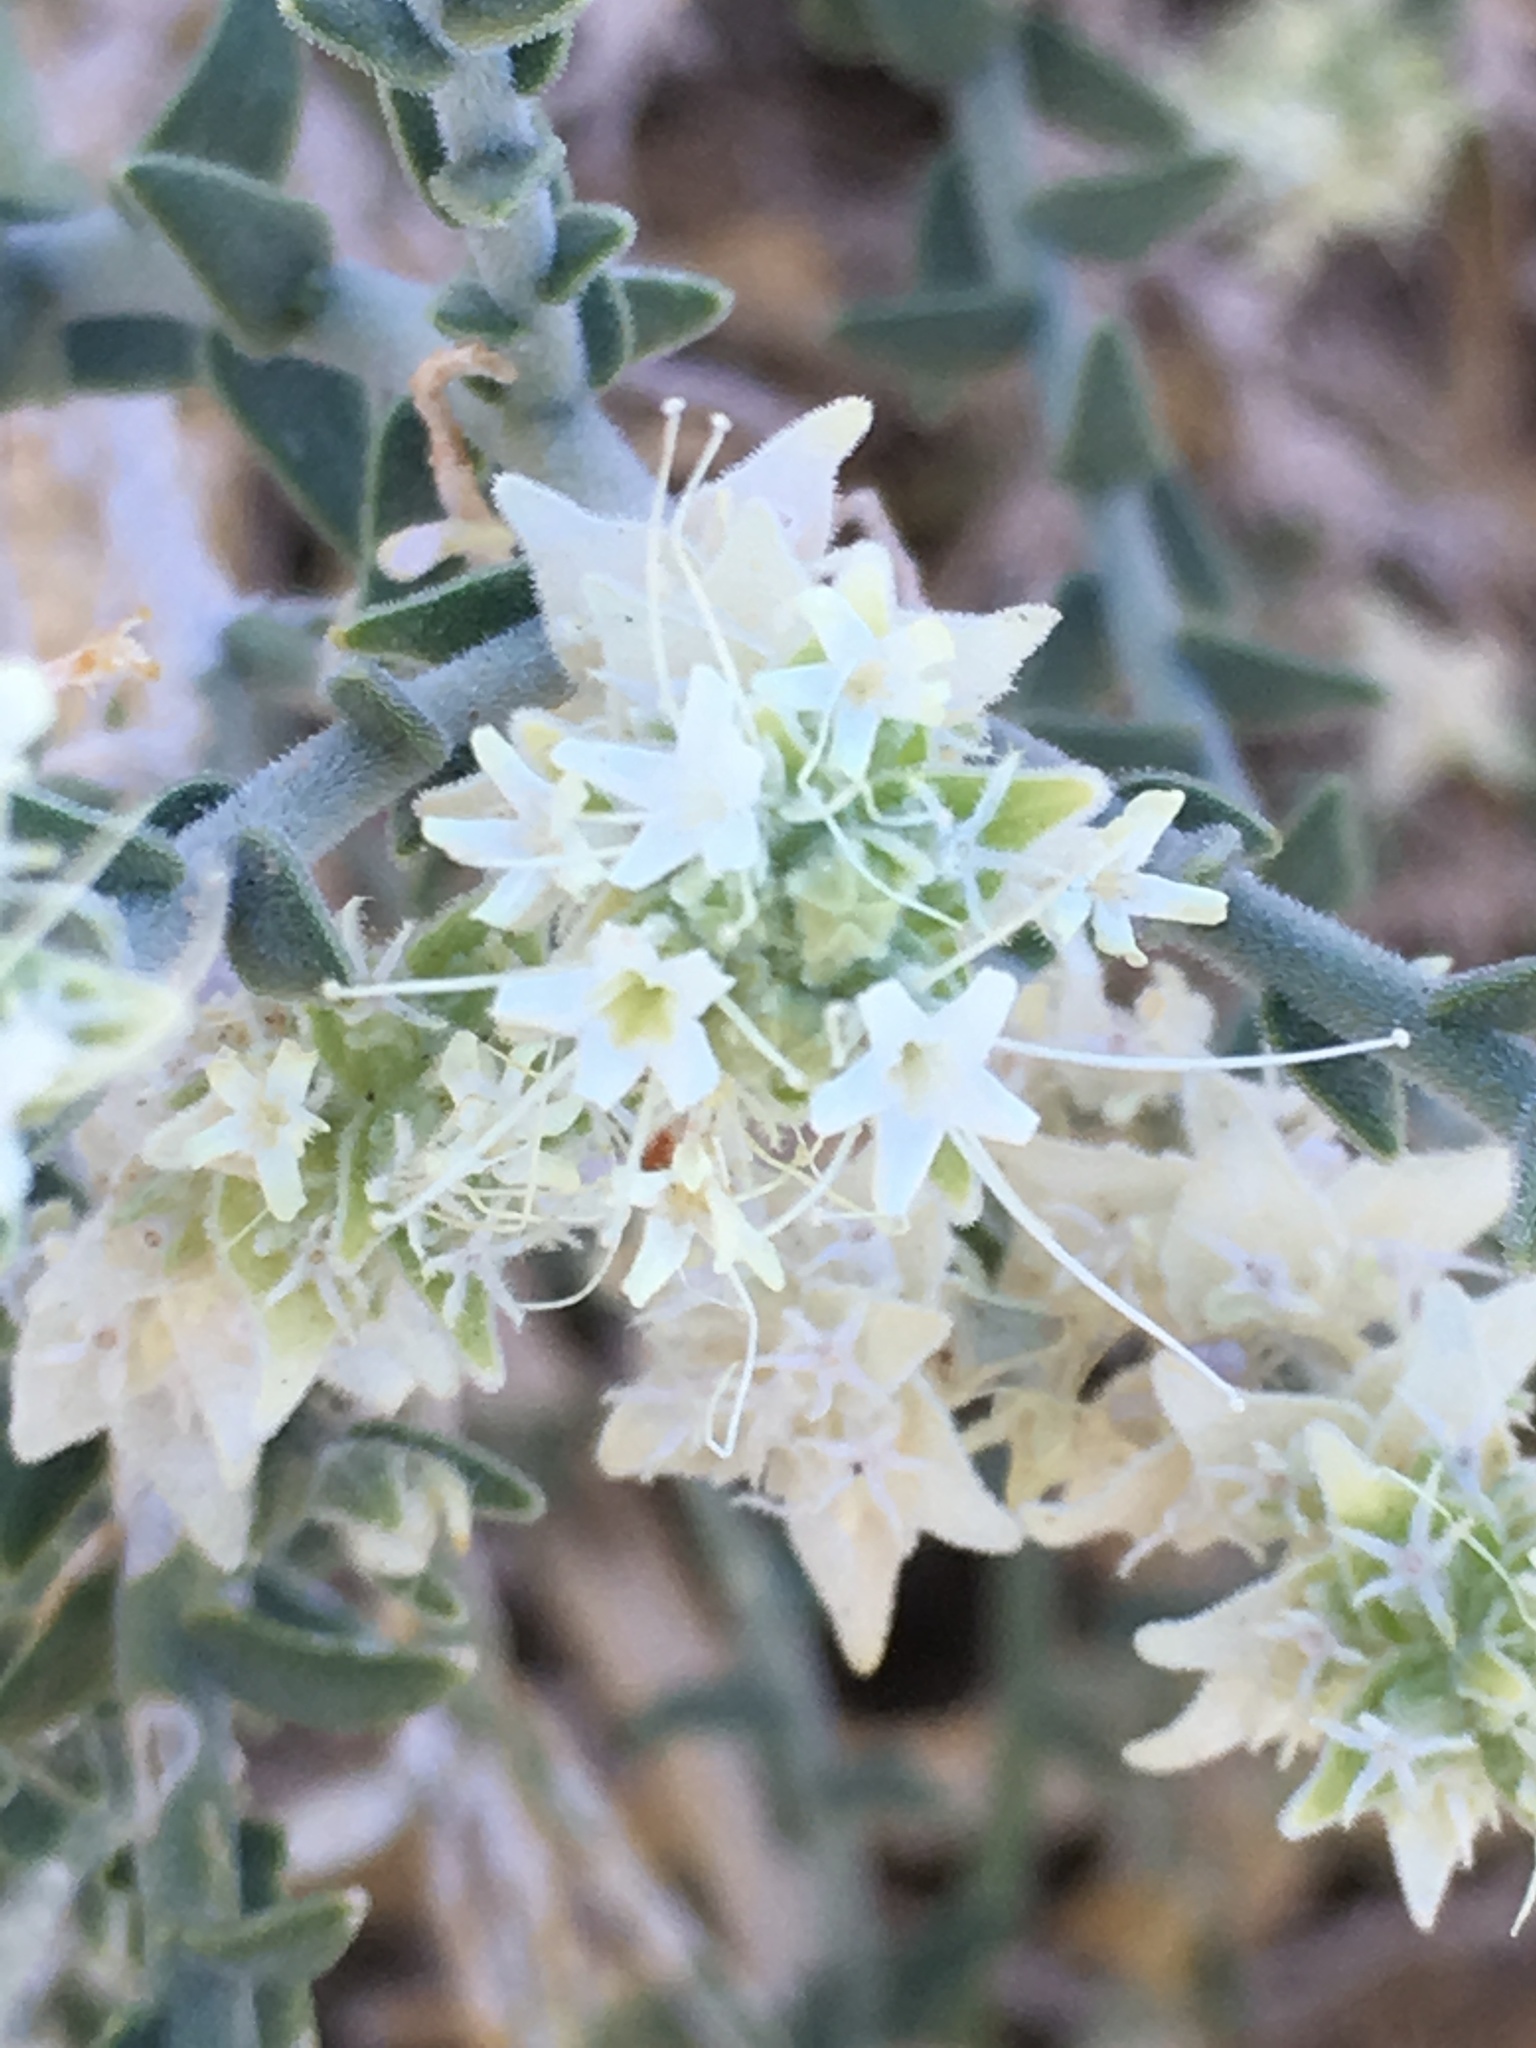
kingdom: Plantae
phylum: Tracheophyta
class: Magnoliopsida
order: Cornales
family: Loasaceae
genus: Petalonyx
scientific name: Petalonyx thurberi
